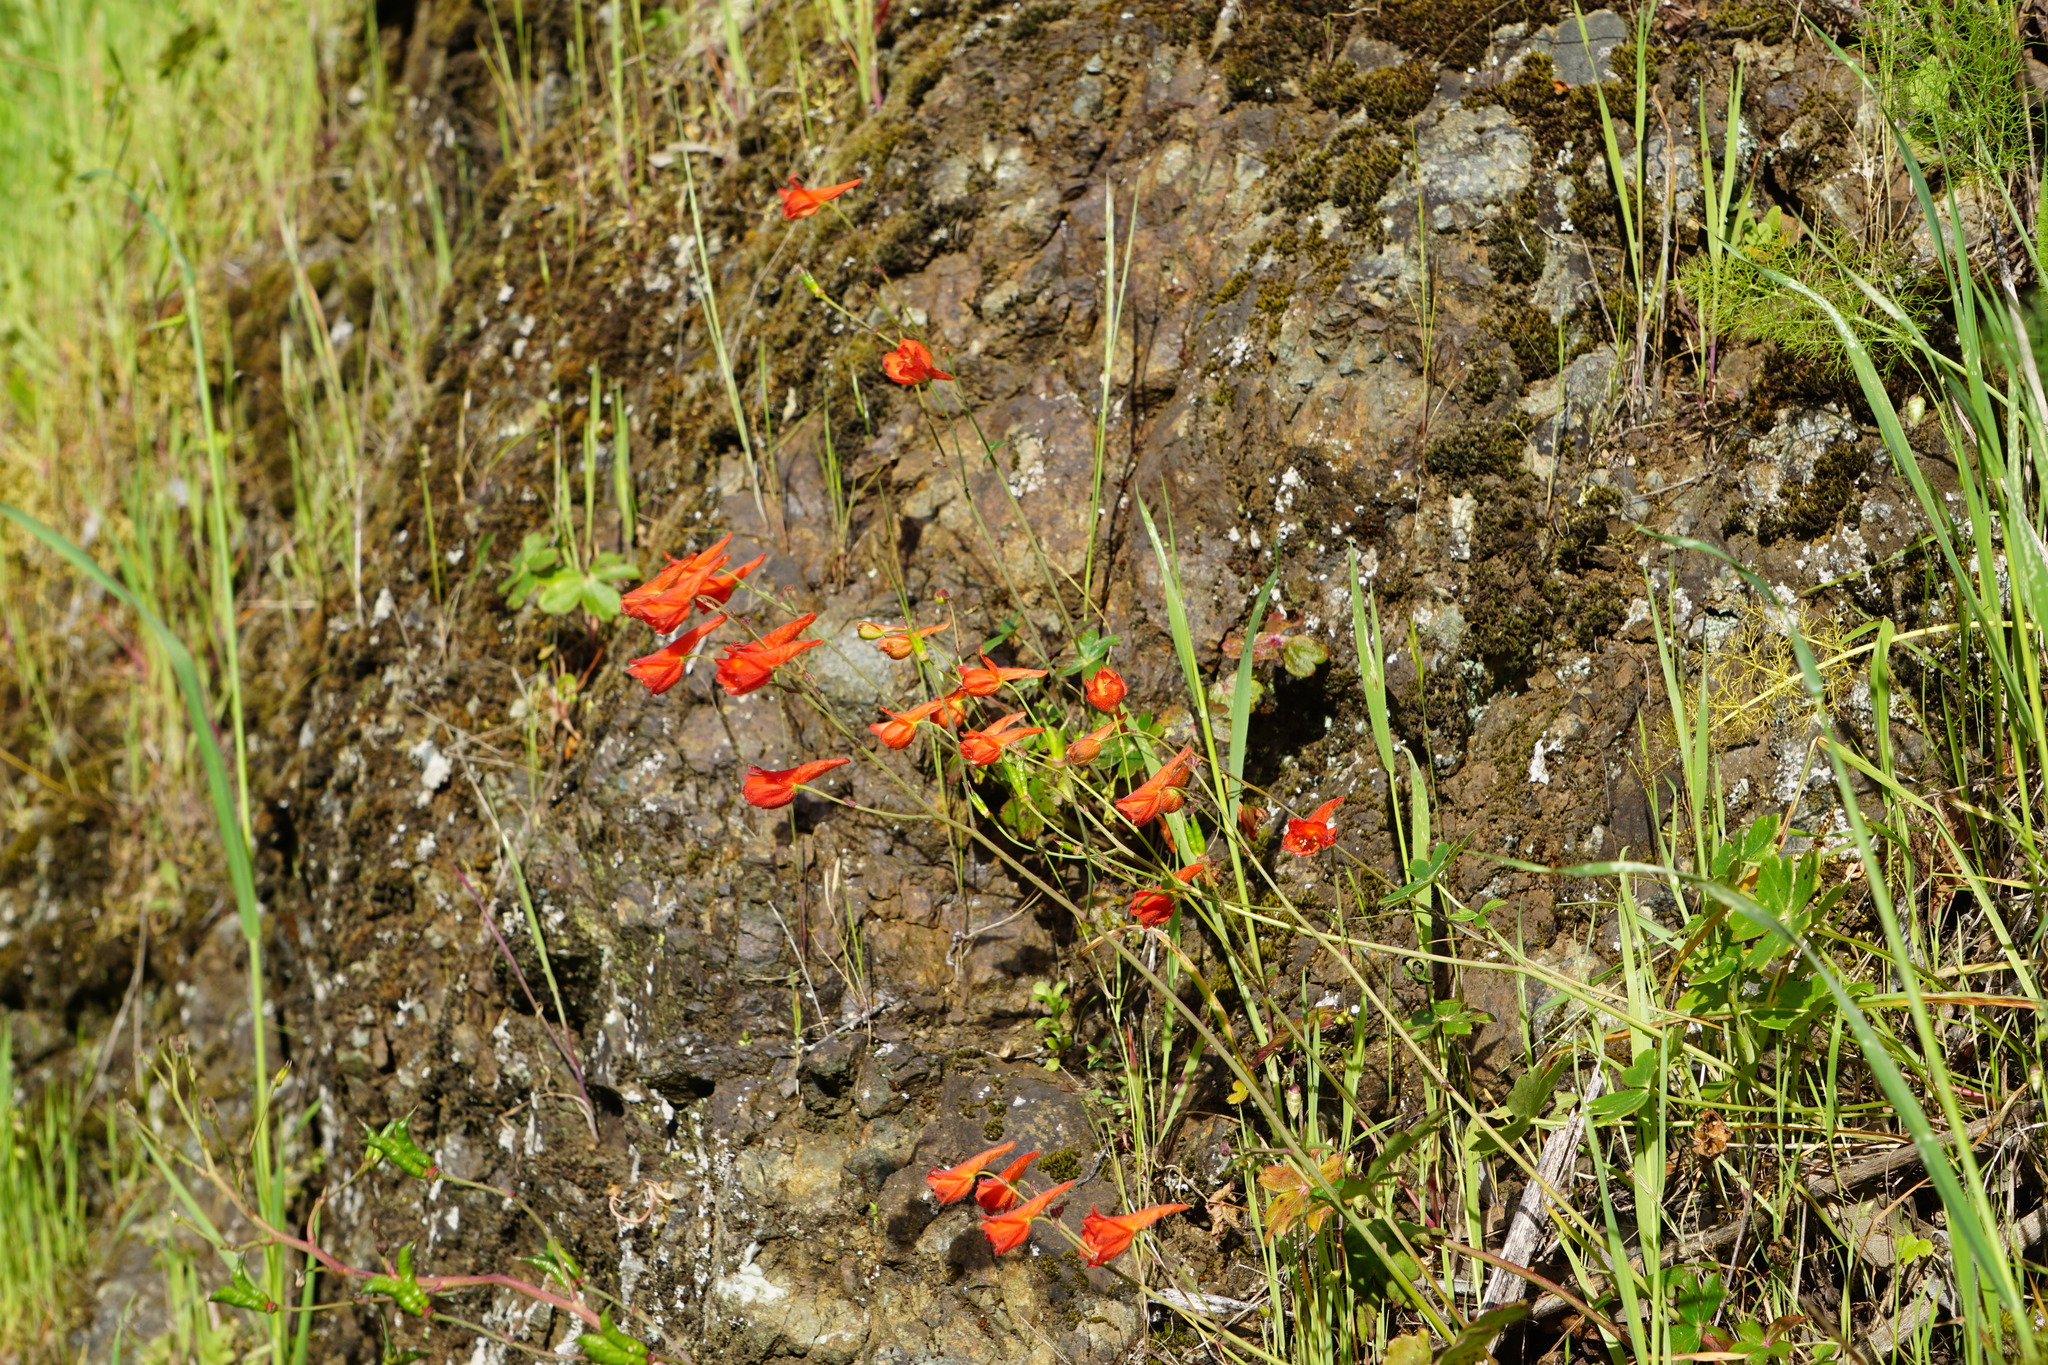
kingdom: Plantae
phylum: Tracheophyta
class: Magnoliopsida
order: Ranunculales
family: Ranunculaceae
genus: Delphinium
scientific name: Delphinium nudicaule
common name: Red larkspur
